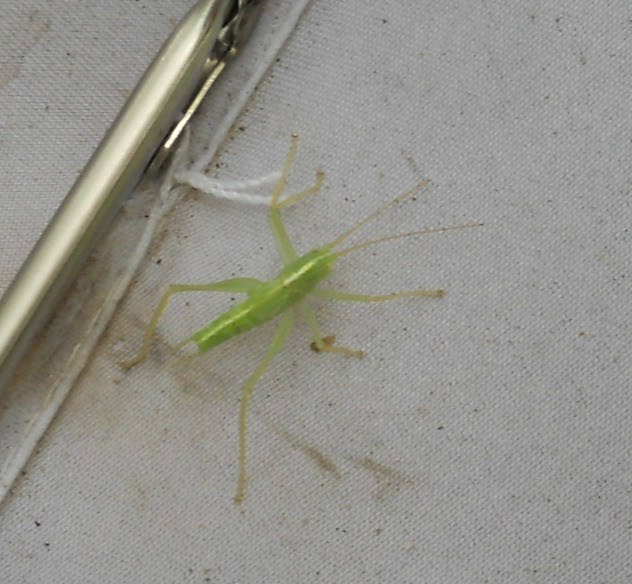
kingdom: Animalia
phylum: Arthropoda
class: Insecta
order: Orthoptera
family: Tettigoniidae
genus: Meconema
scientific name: Meconema thalassinum
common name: Oak bush-cricket
